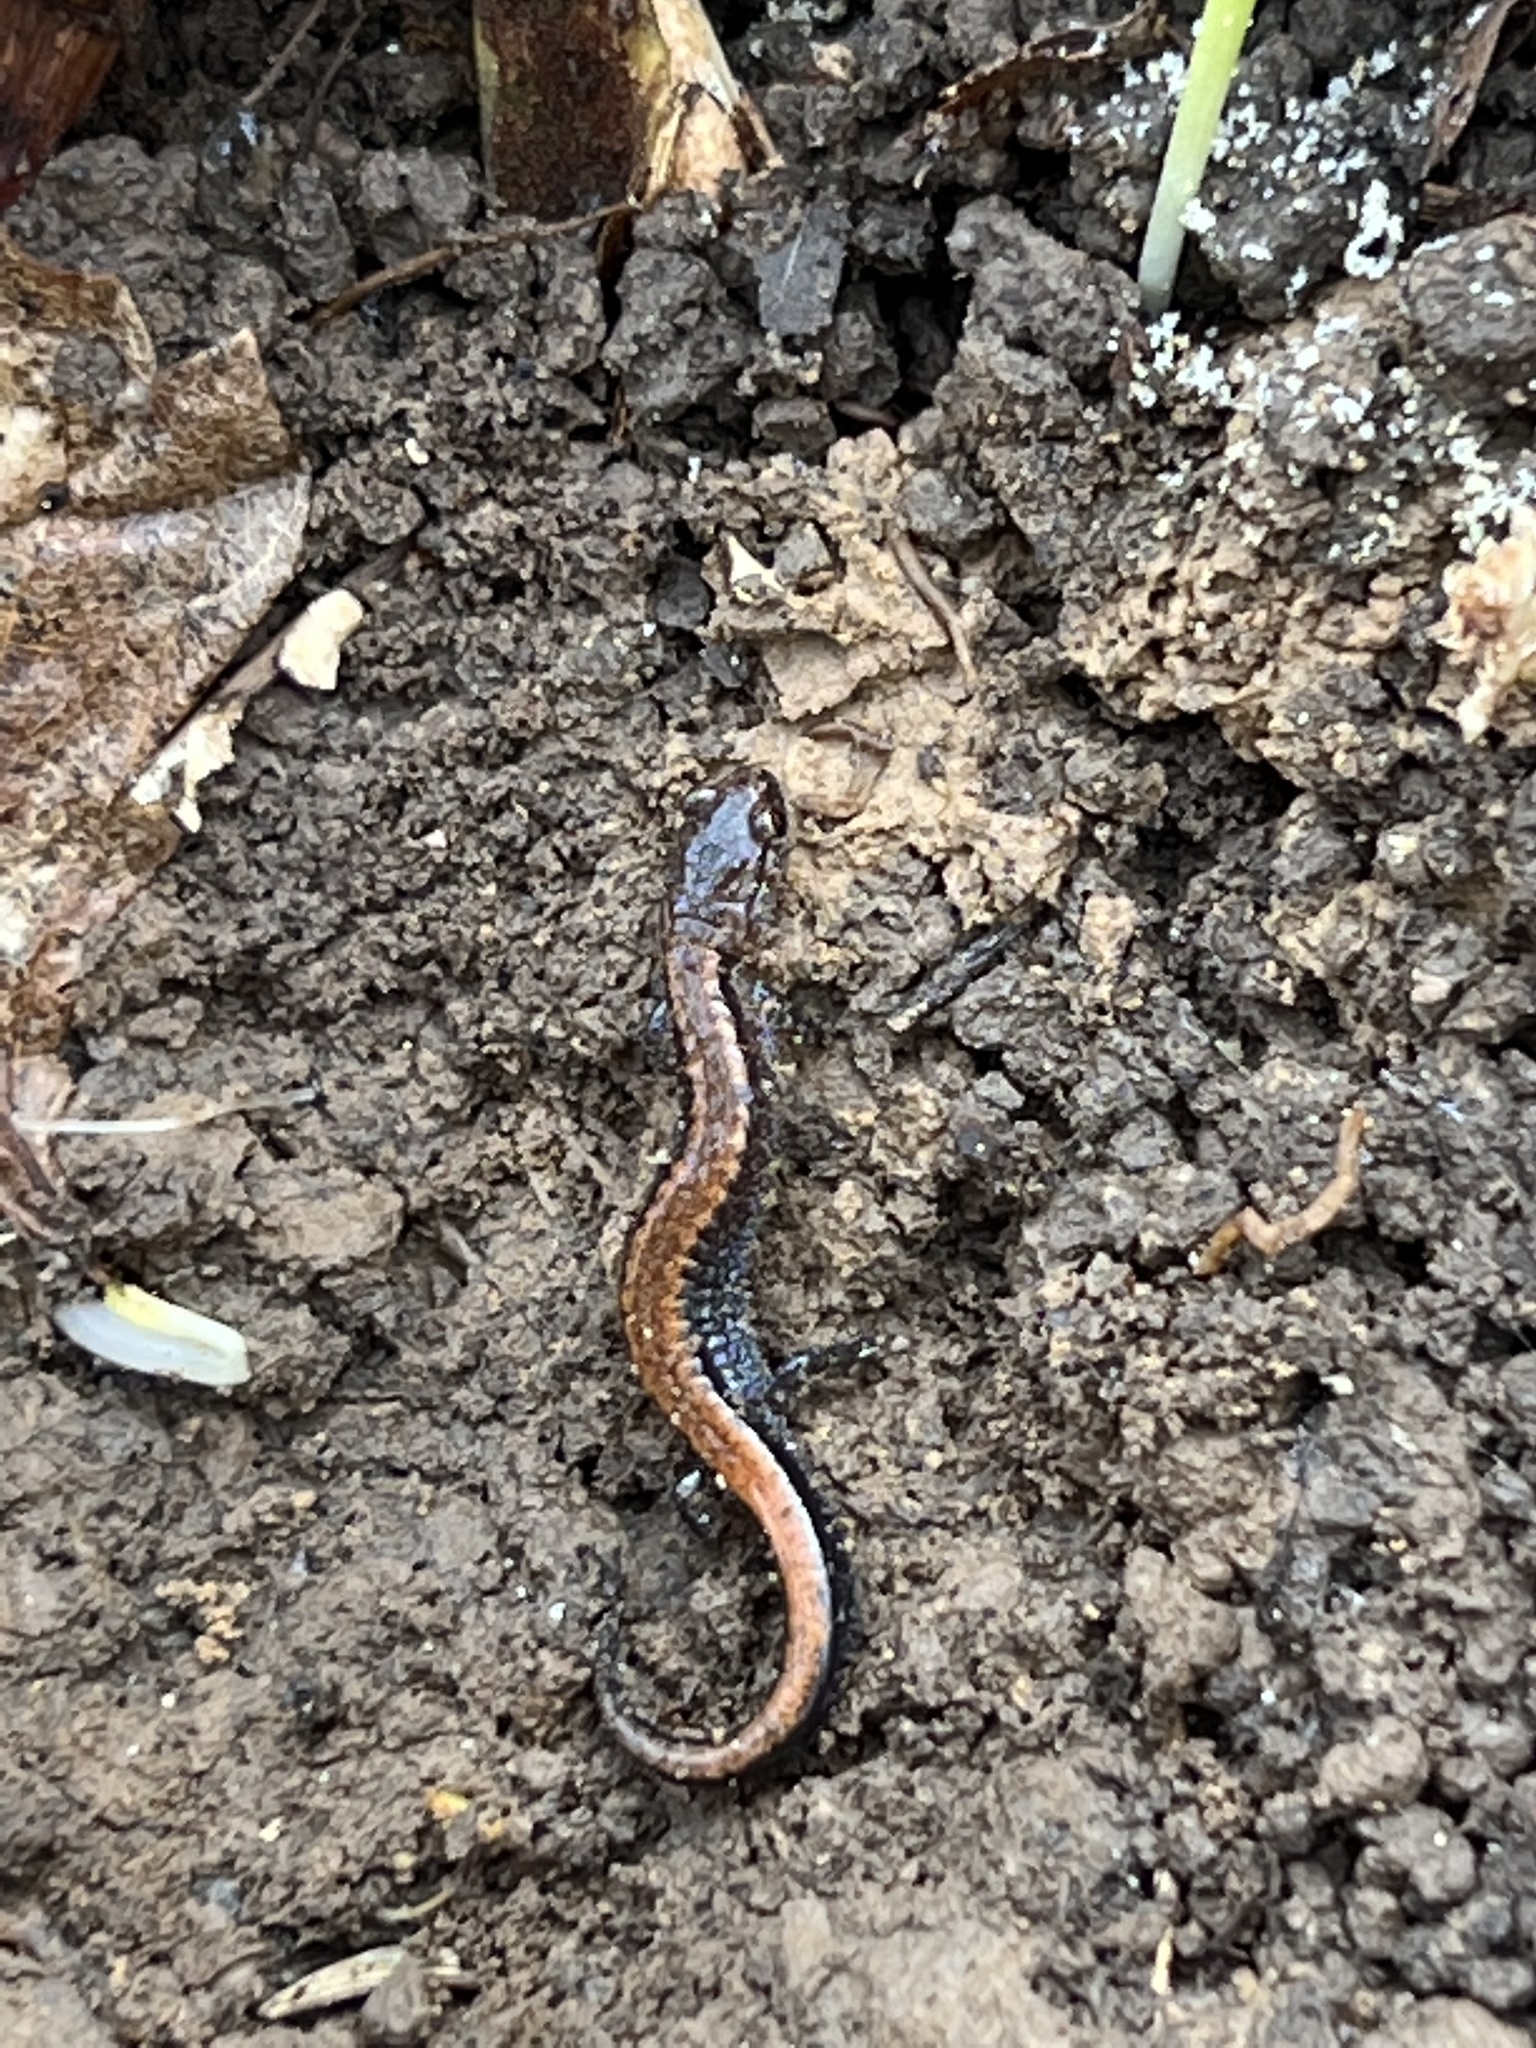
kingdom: Animalia
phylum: Chordata
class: Amphibia
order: Caudata
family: Plethodontidae
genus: Plethodon
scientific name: Plethodon cinereus
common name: Redback salamander
